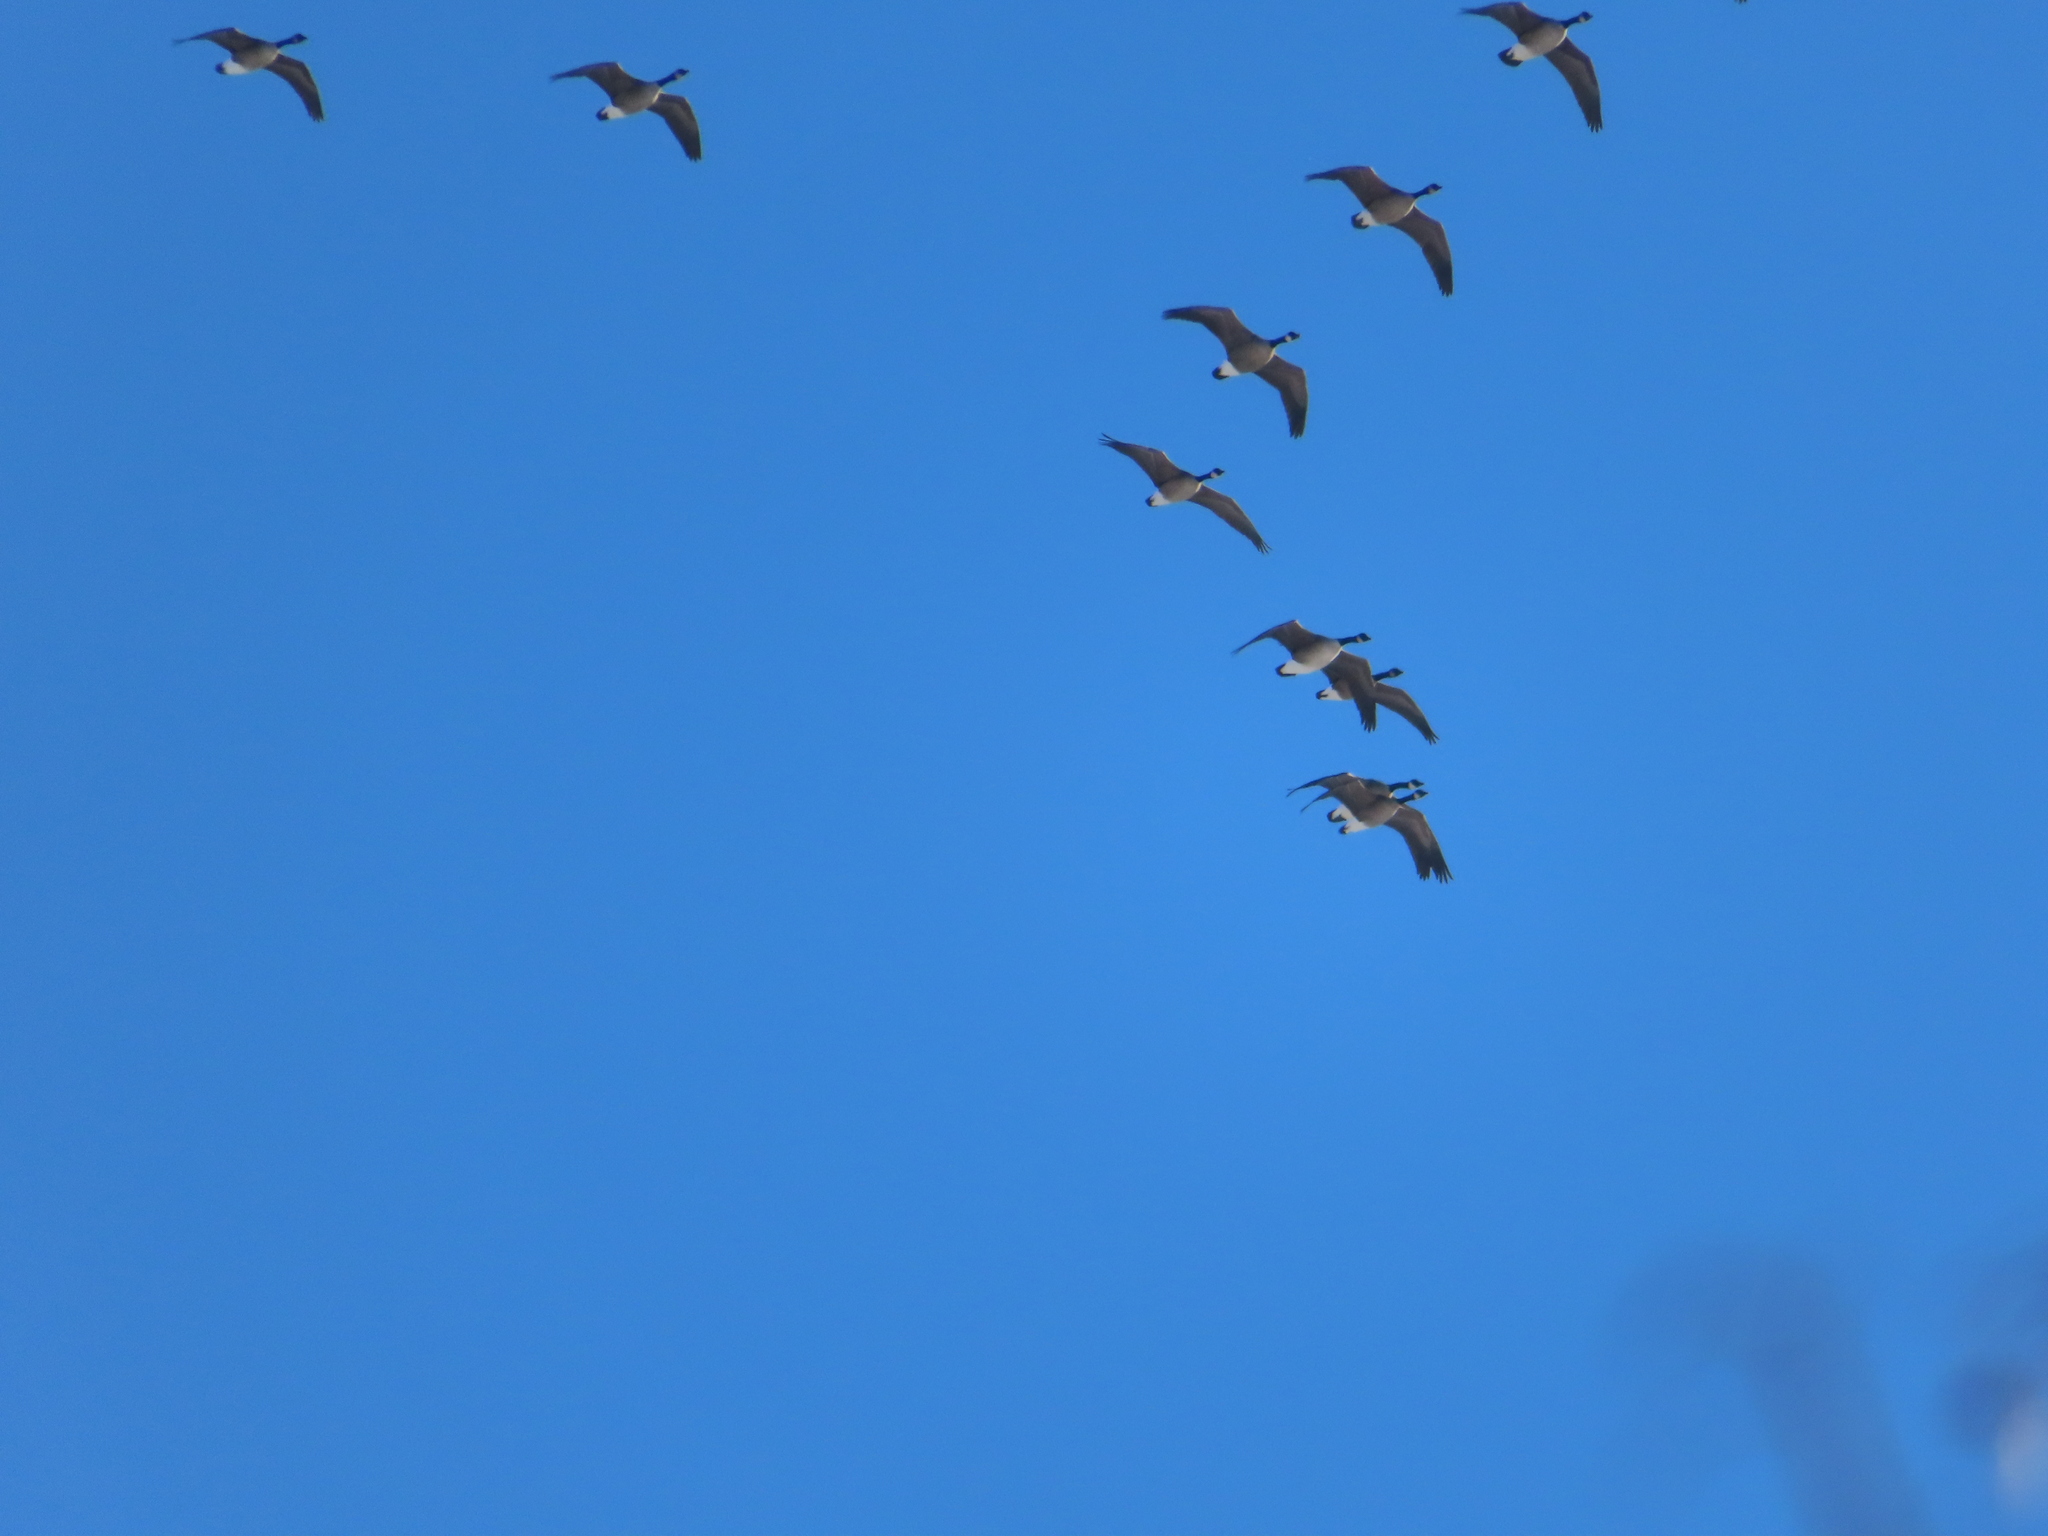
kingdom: Animalia
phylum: Chordata
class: Aves
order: Anseriformes
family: Anatidae
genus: Branta
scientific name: Branta canadensis
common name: Canada goose
